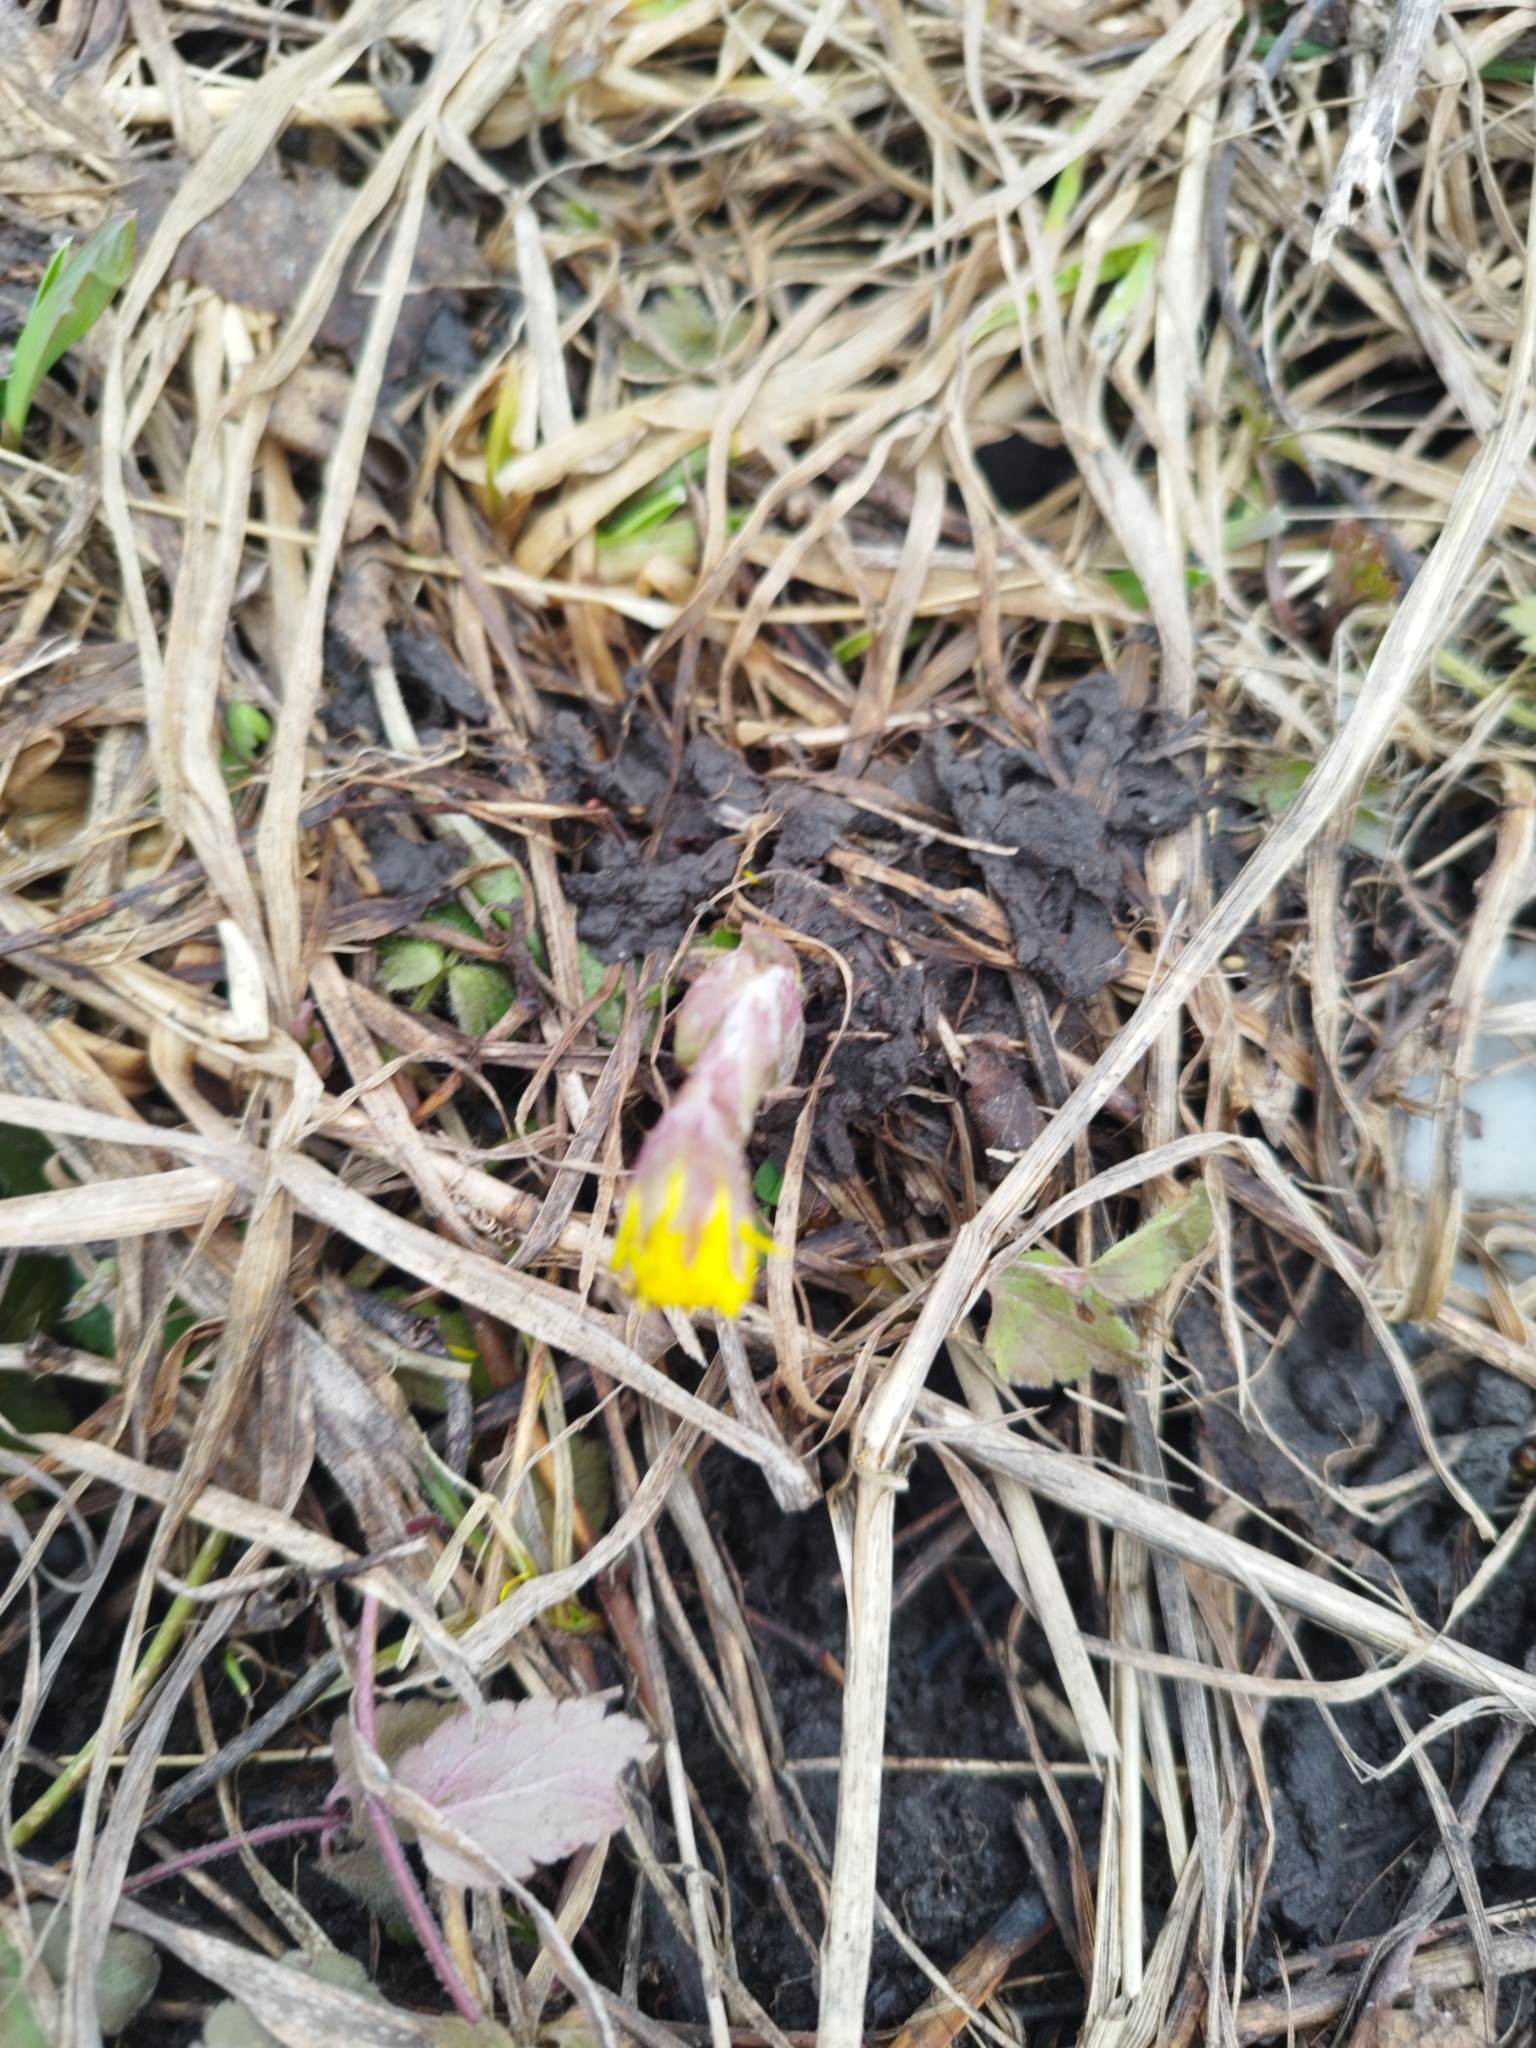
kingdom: Plantae
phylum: Tracheophyta
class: Magnoliopsida
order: Asterales
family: Asteraceae
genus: Tussilago
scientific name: Tussilago farfara
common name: Coltsfoot
